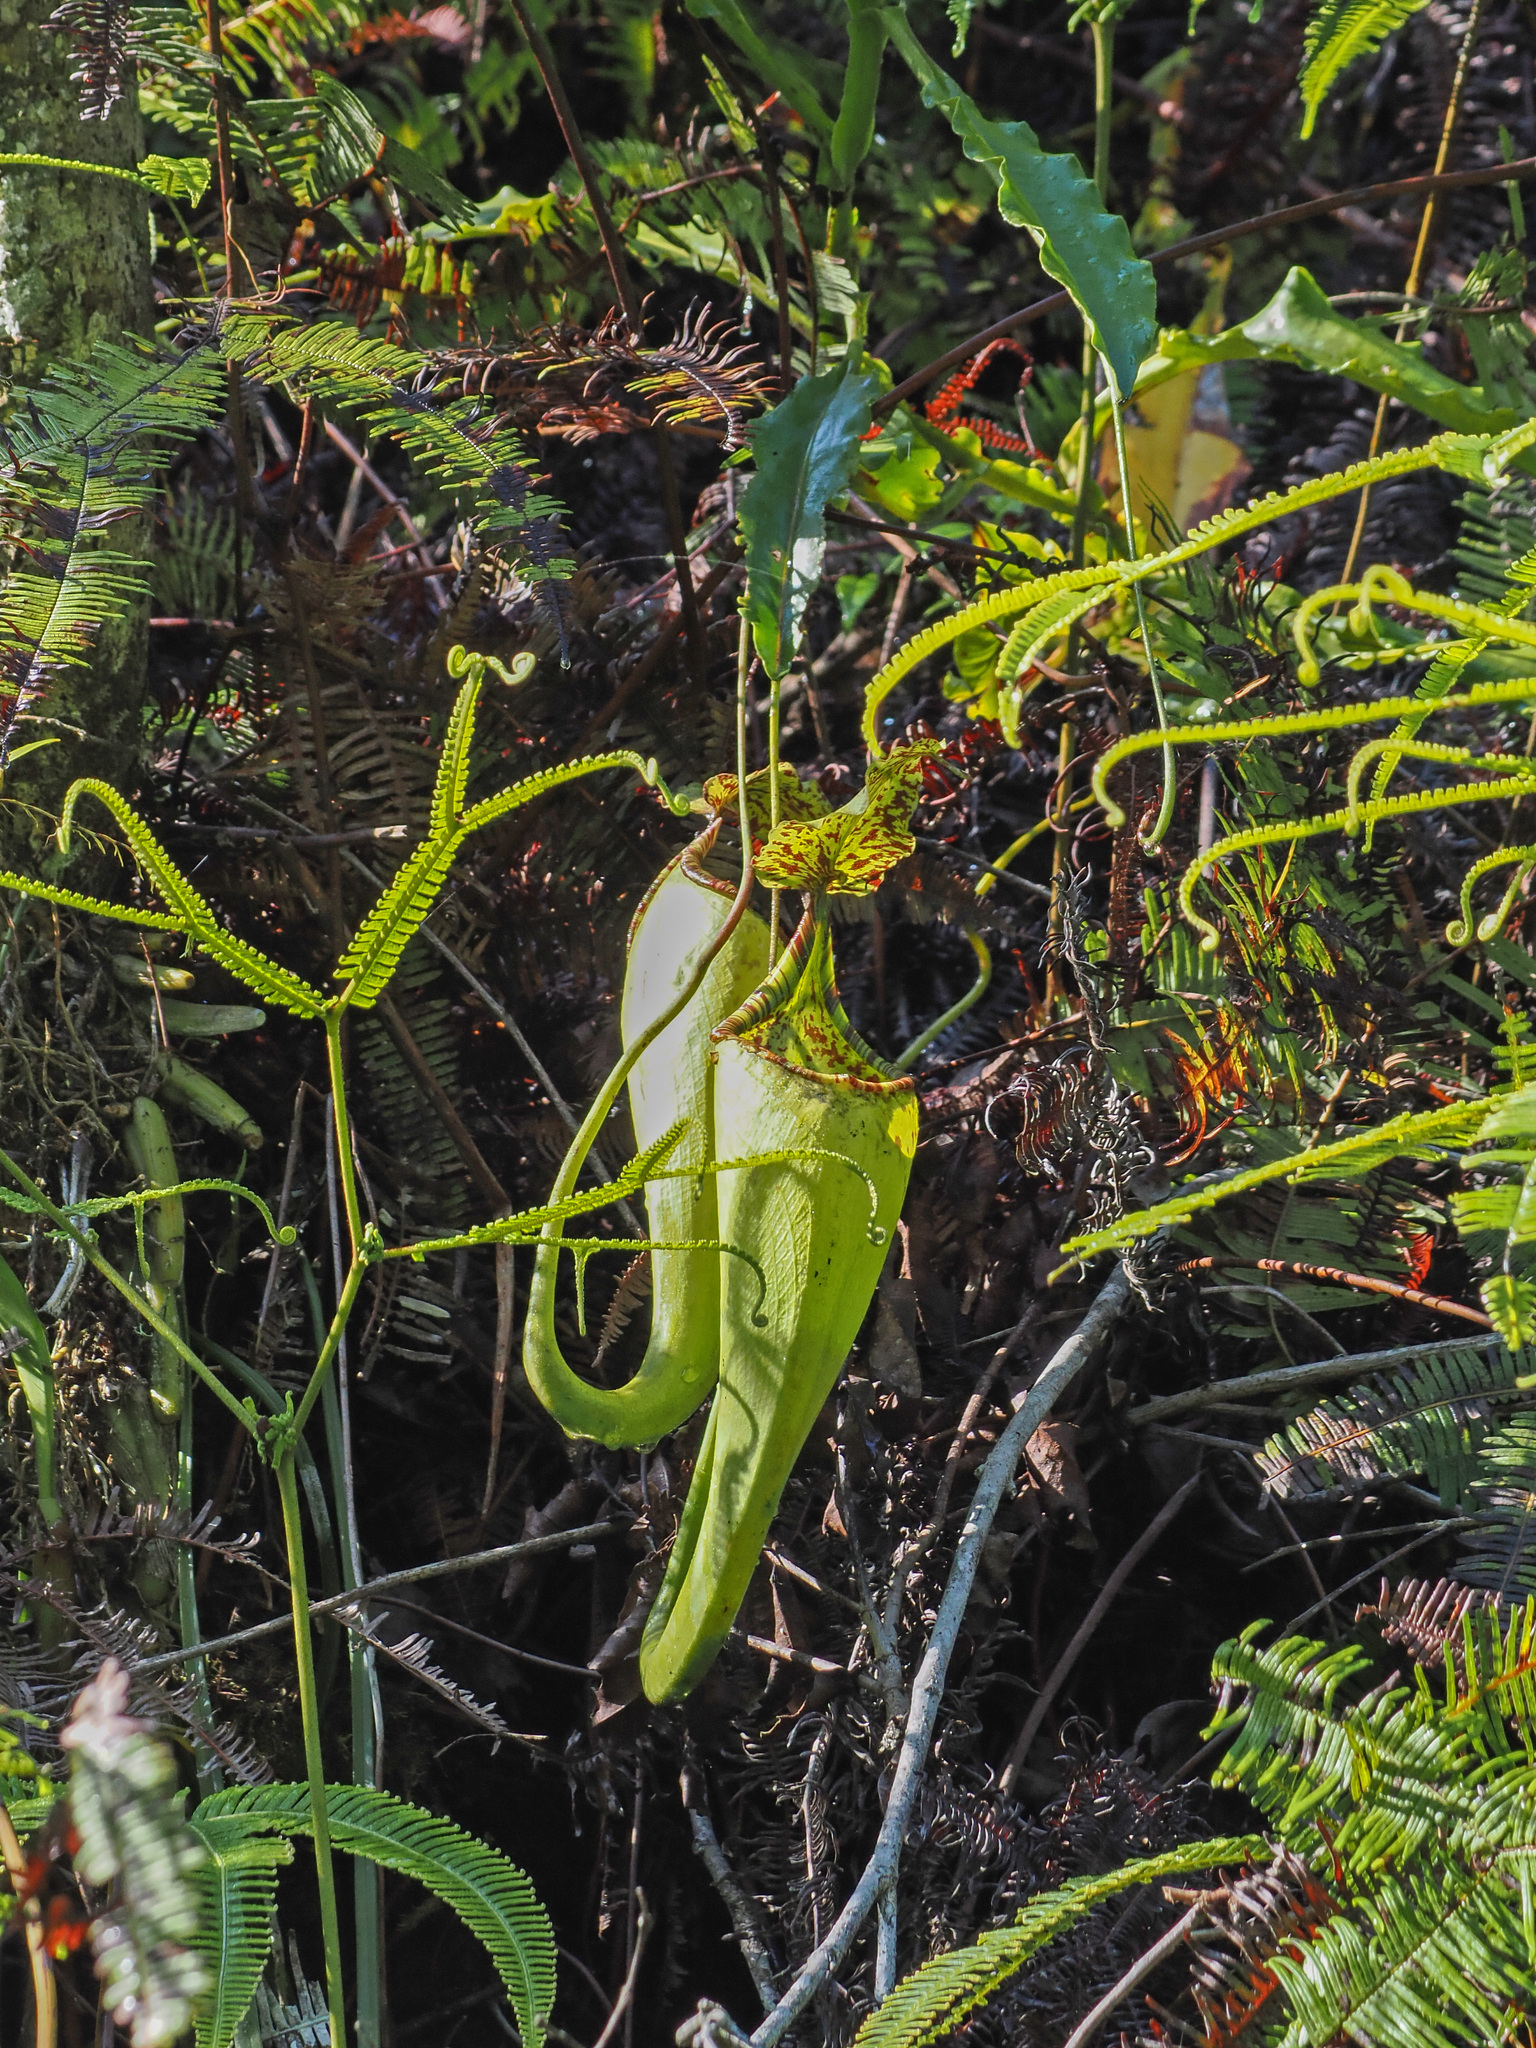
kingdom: Plantae
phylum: Tracheophyta
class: Magnoliopsida
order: Caryophyllales
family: Nepenthaceae
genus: Nepenthes
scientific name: Nepenthes maxima
